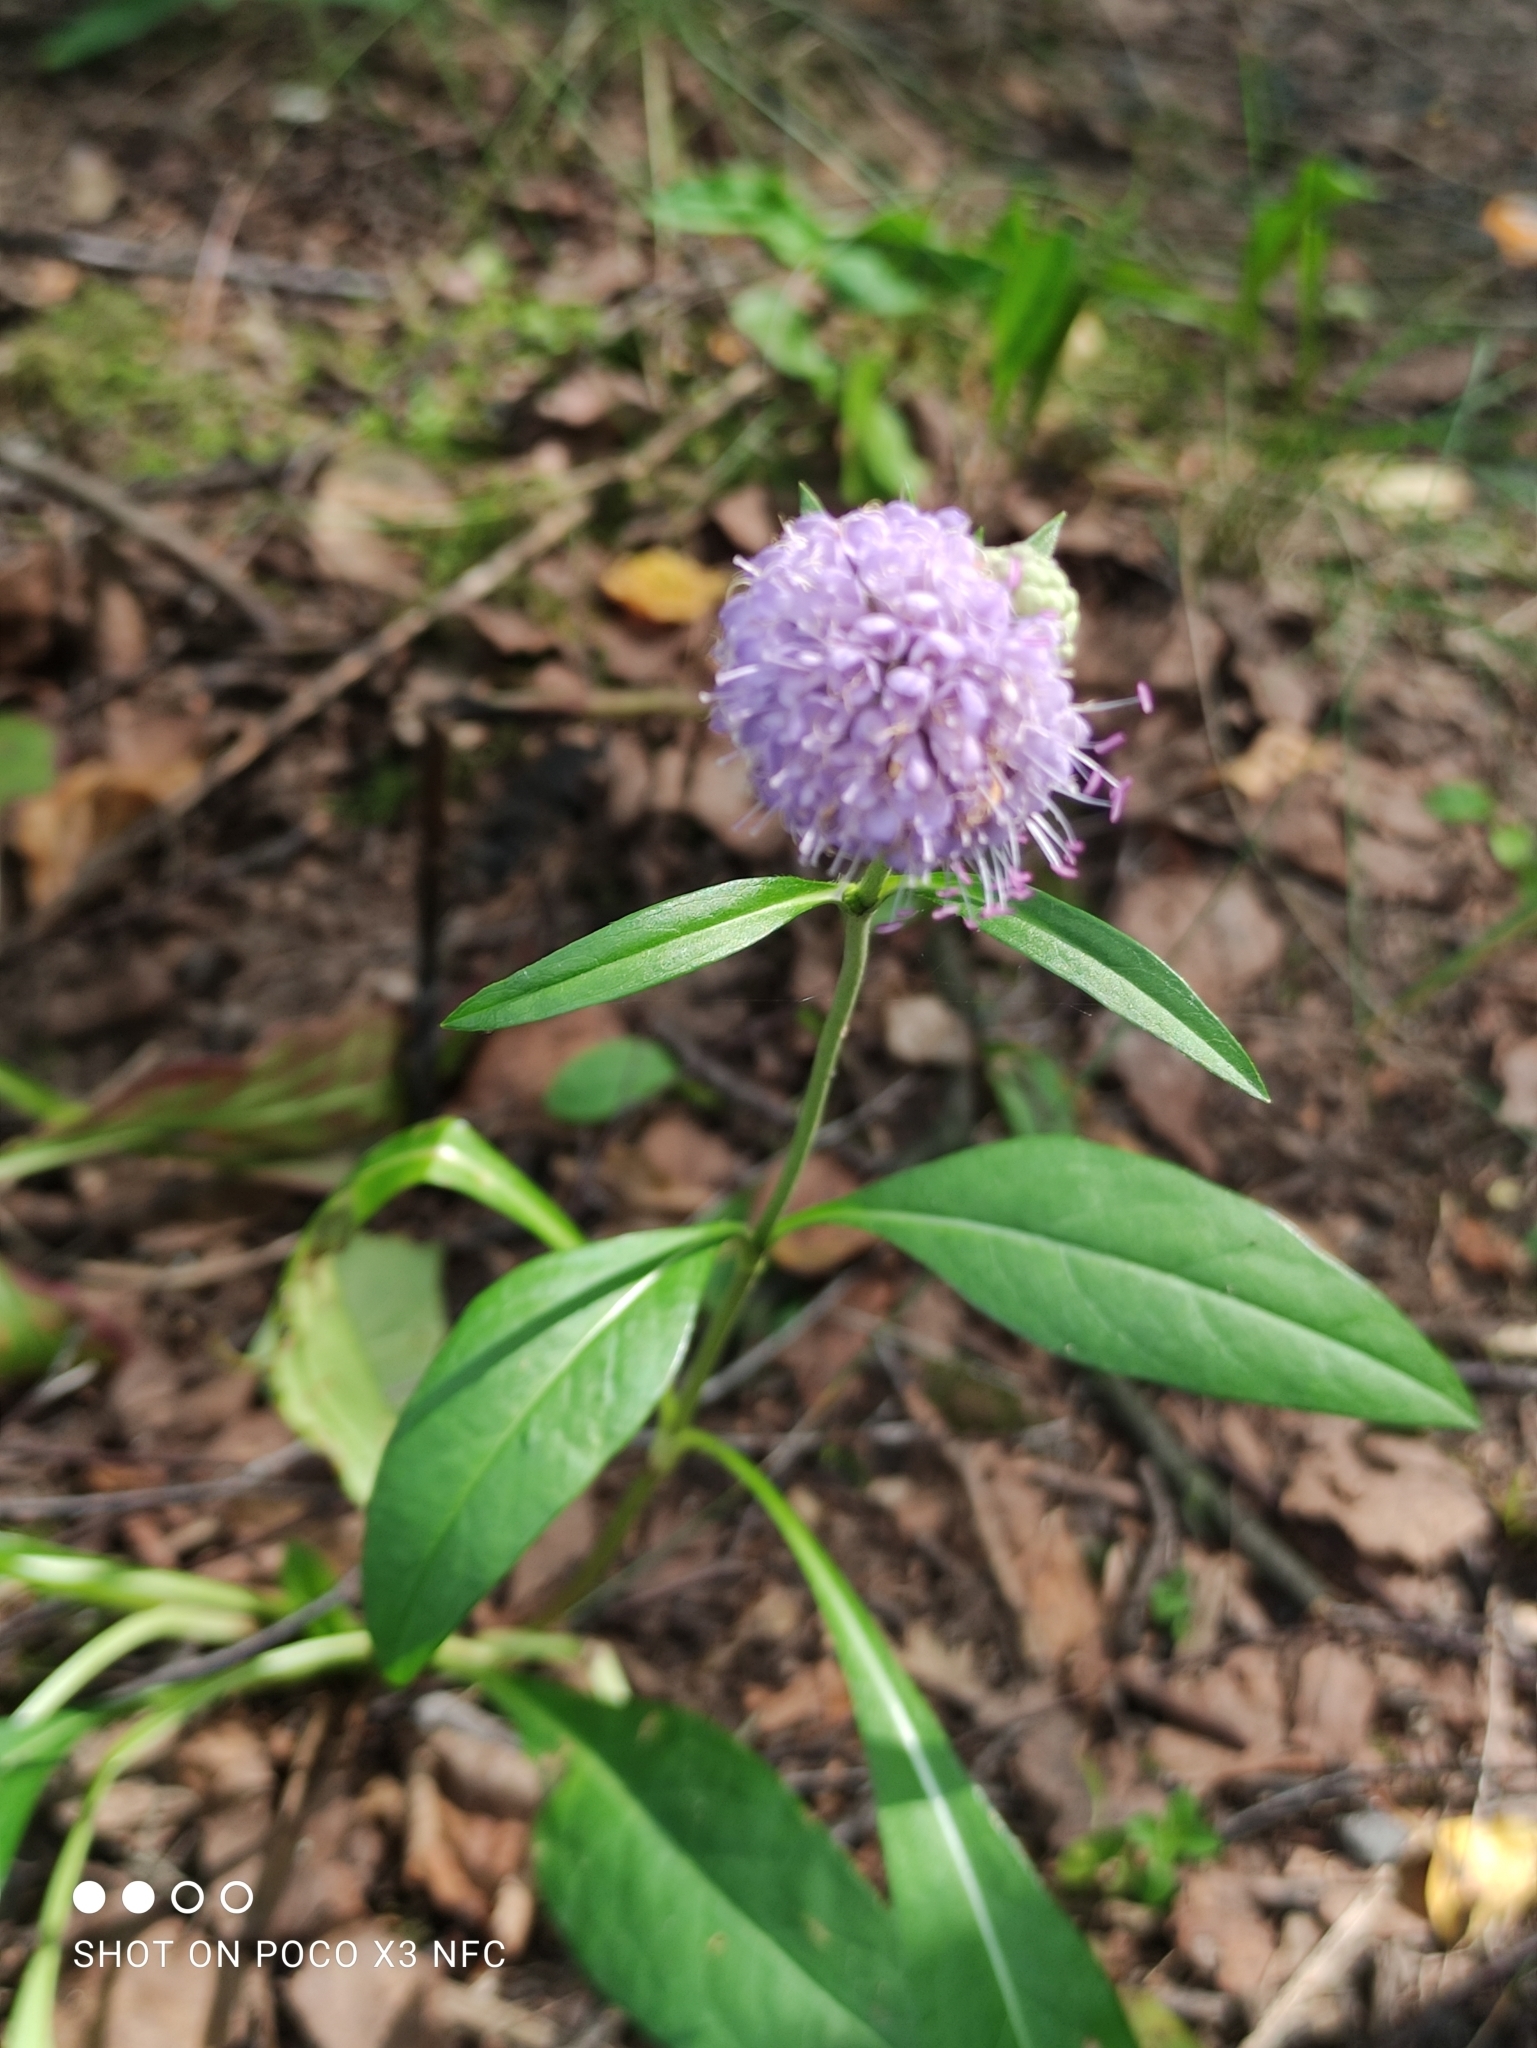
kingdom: Plantae
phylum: Tracheophyta
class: Magnoliopsida
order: Dipsacales
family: Caprifoliaceae
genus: Succisa
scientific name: Succisa pratensis
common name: Devil's-bit
